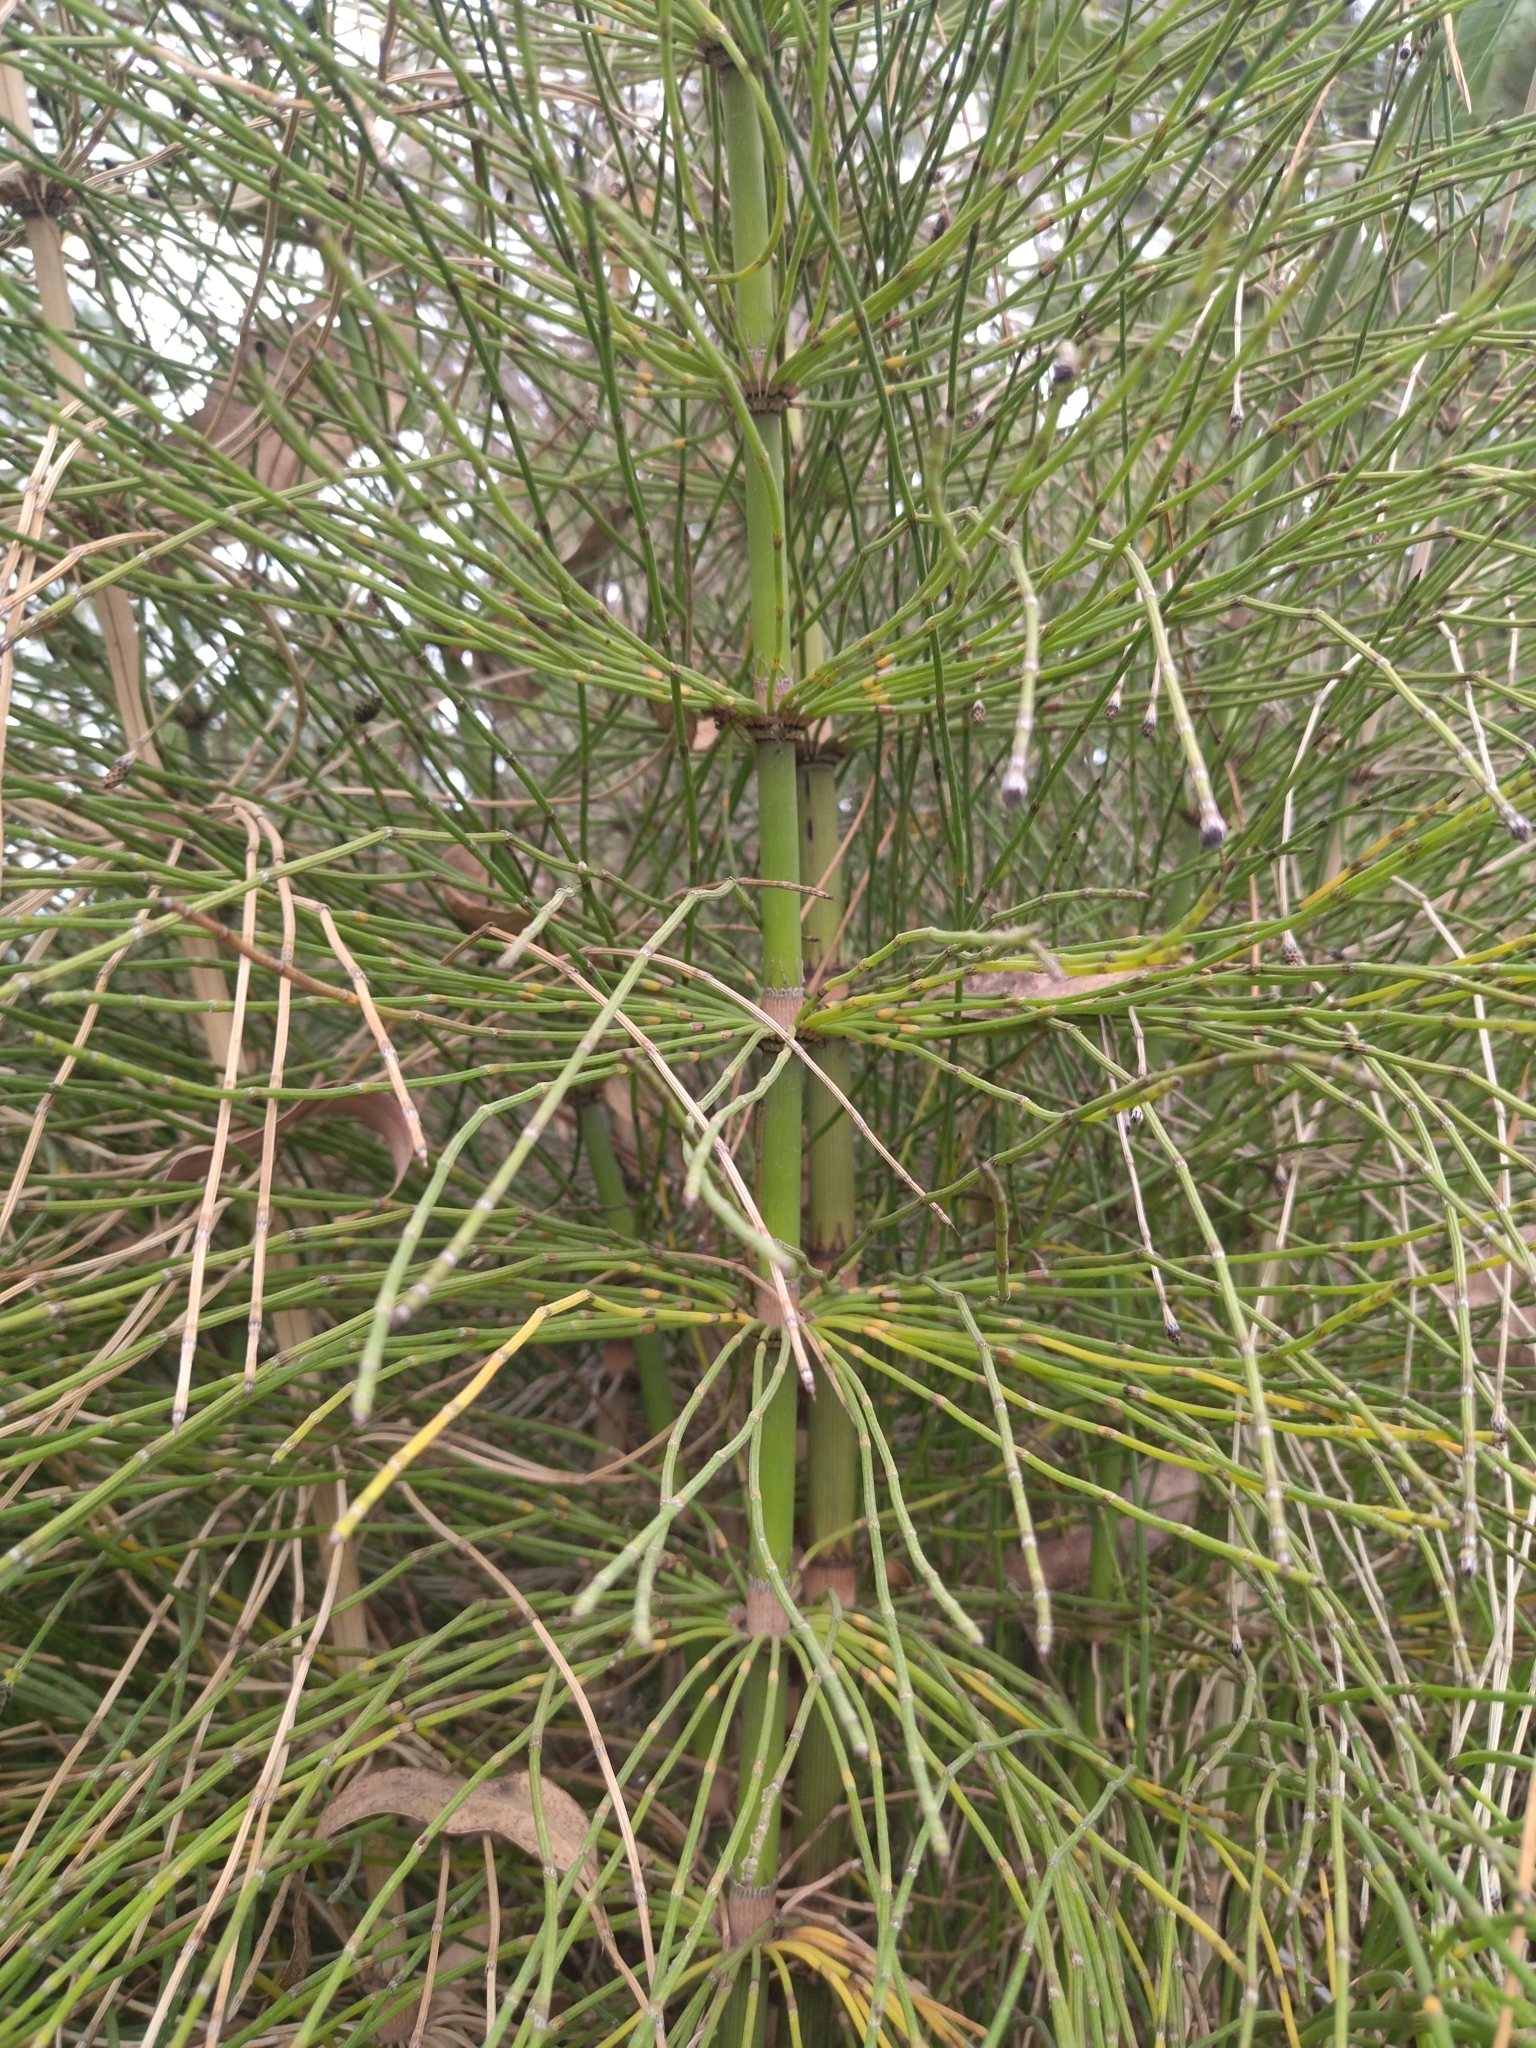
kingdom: Plantae
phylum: Tracheophyta
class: Polypodiopsida
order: Equisetales
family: Equisetaceae
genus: Equisetum
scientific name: Equisetum giganteum
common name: Giant horsetail
